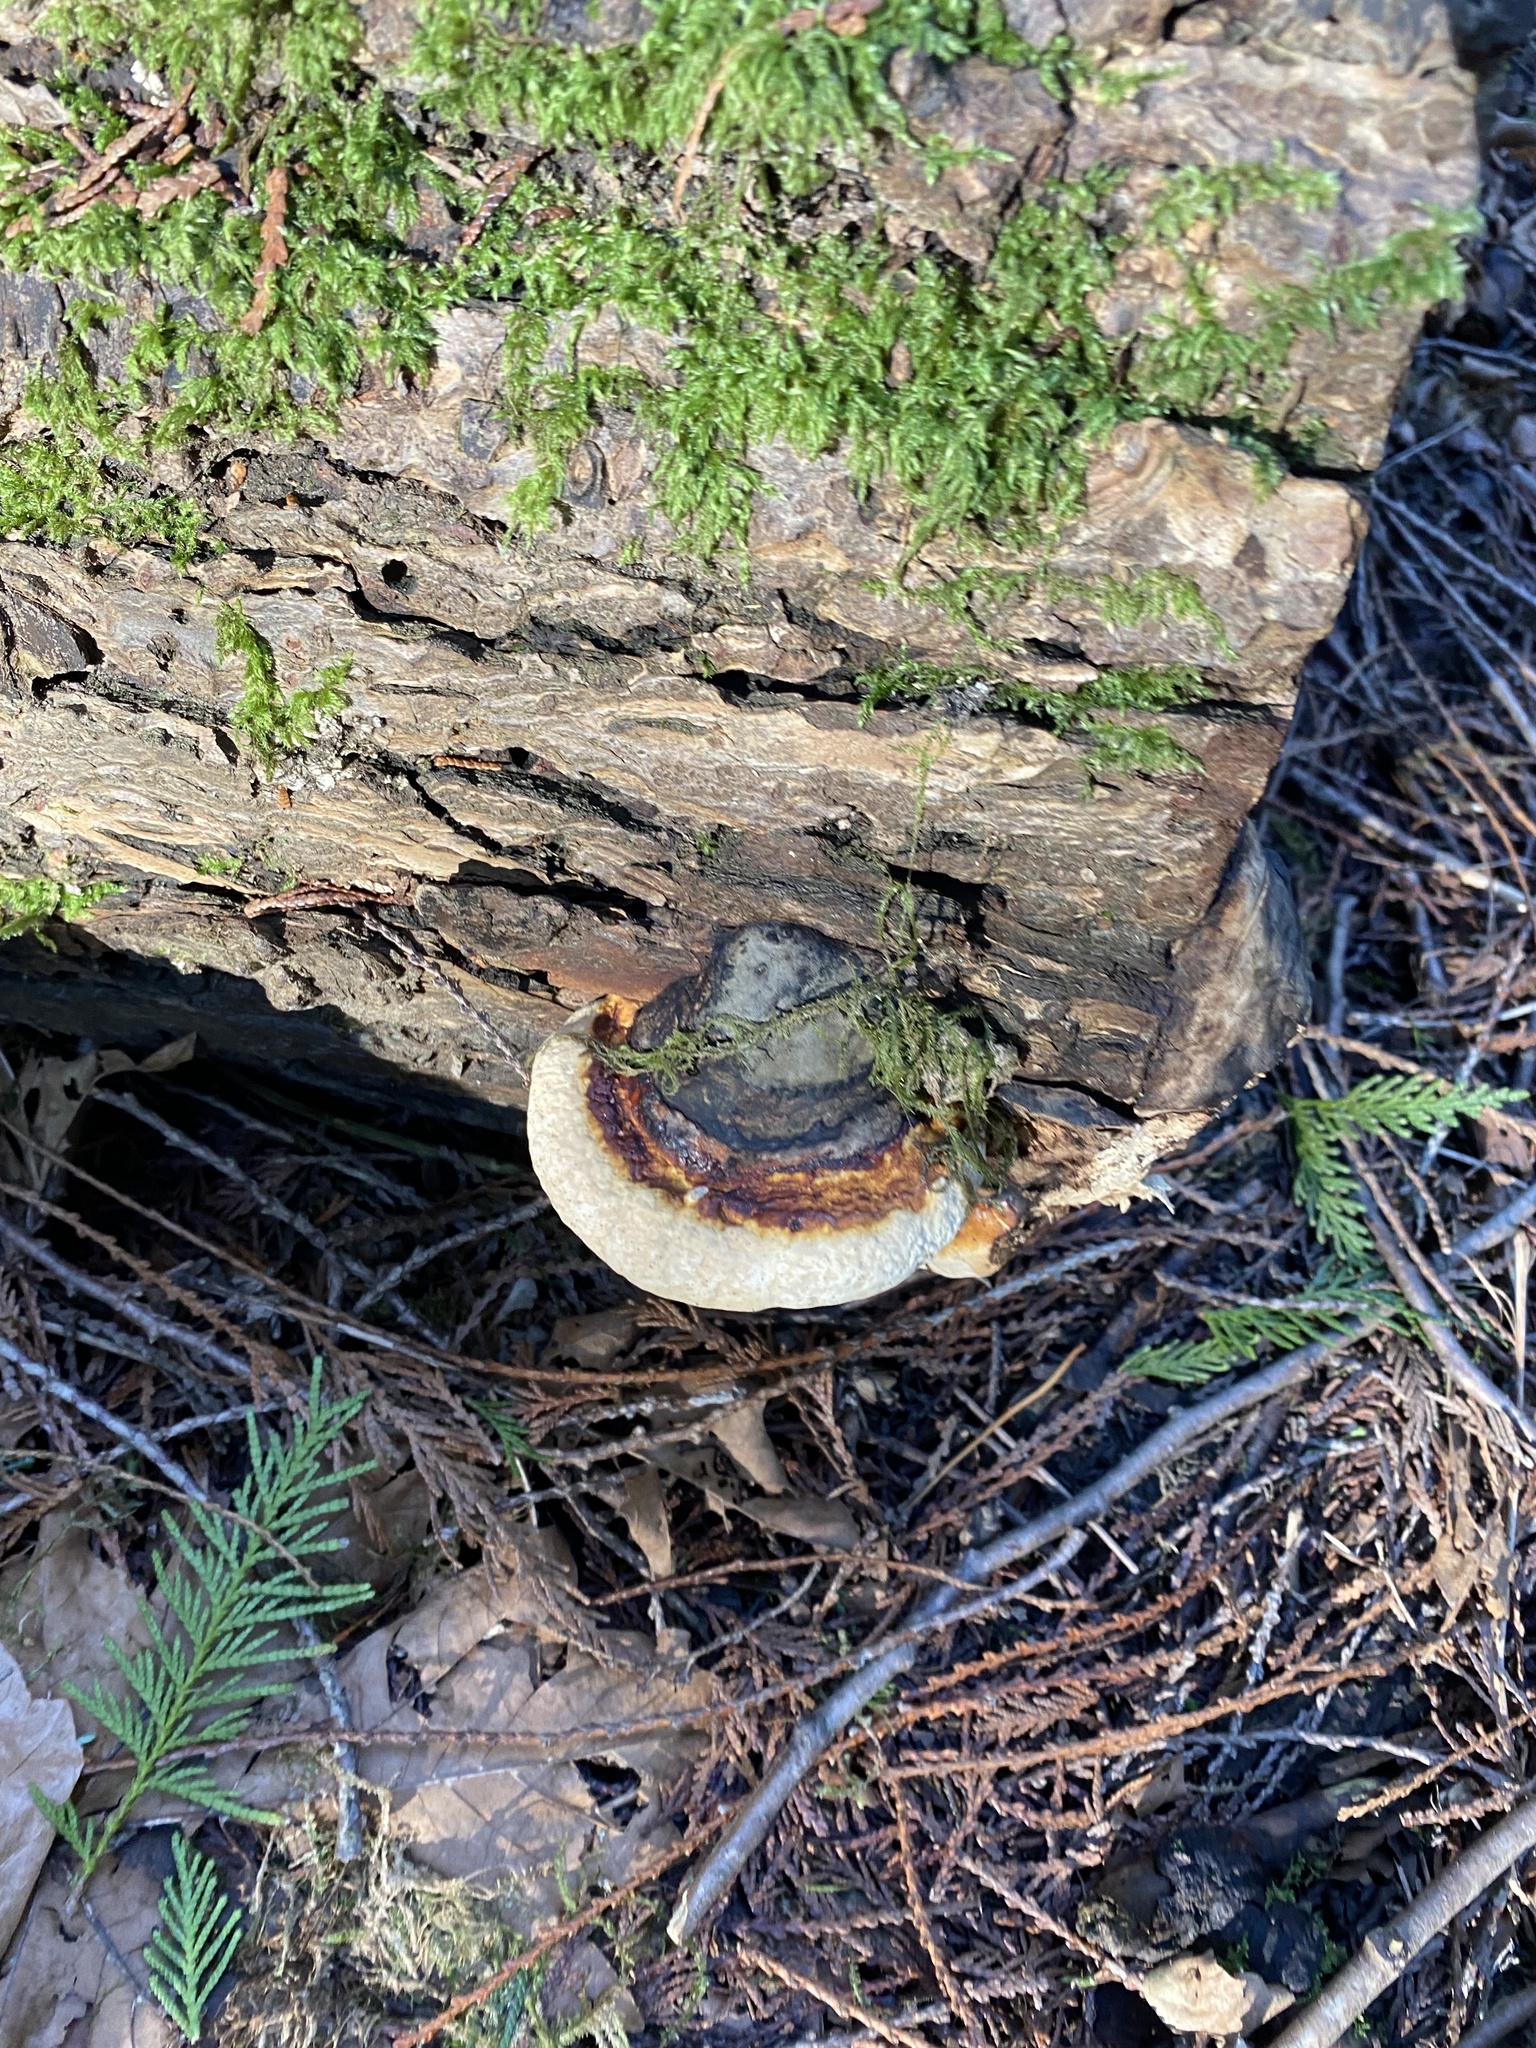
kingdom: Fungi
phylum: Basidiomycota
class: Agaricomycetes
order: Polyporales
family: Fomitopsidaceae
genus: Fomitopsis
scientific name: Fomitopsis mounceae
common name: Northern red belt
